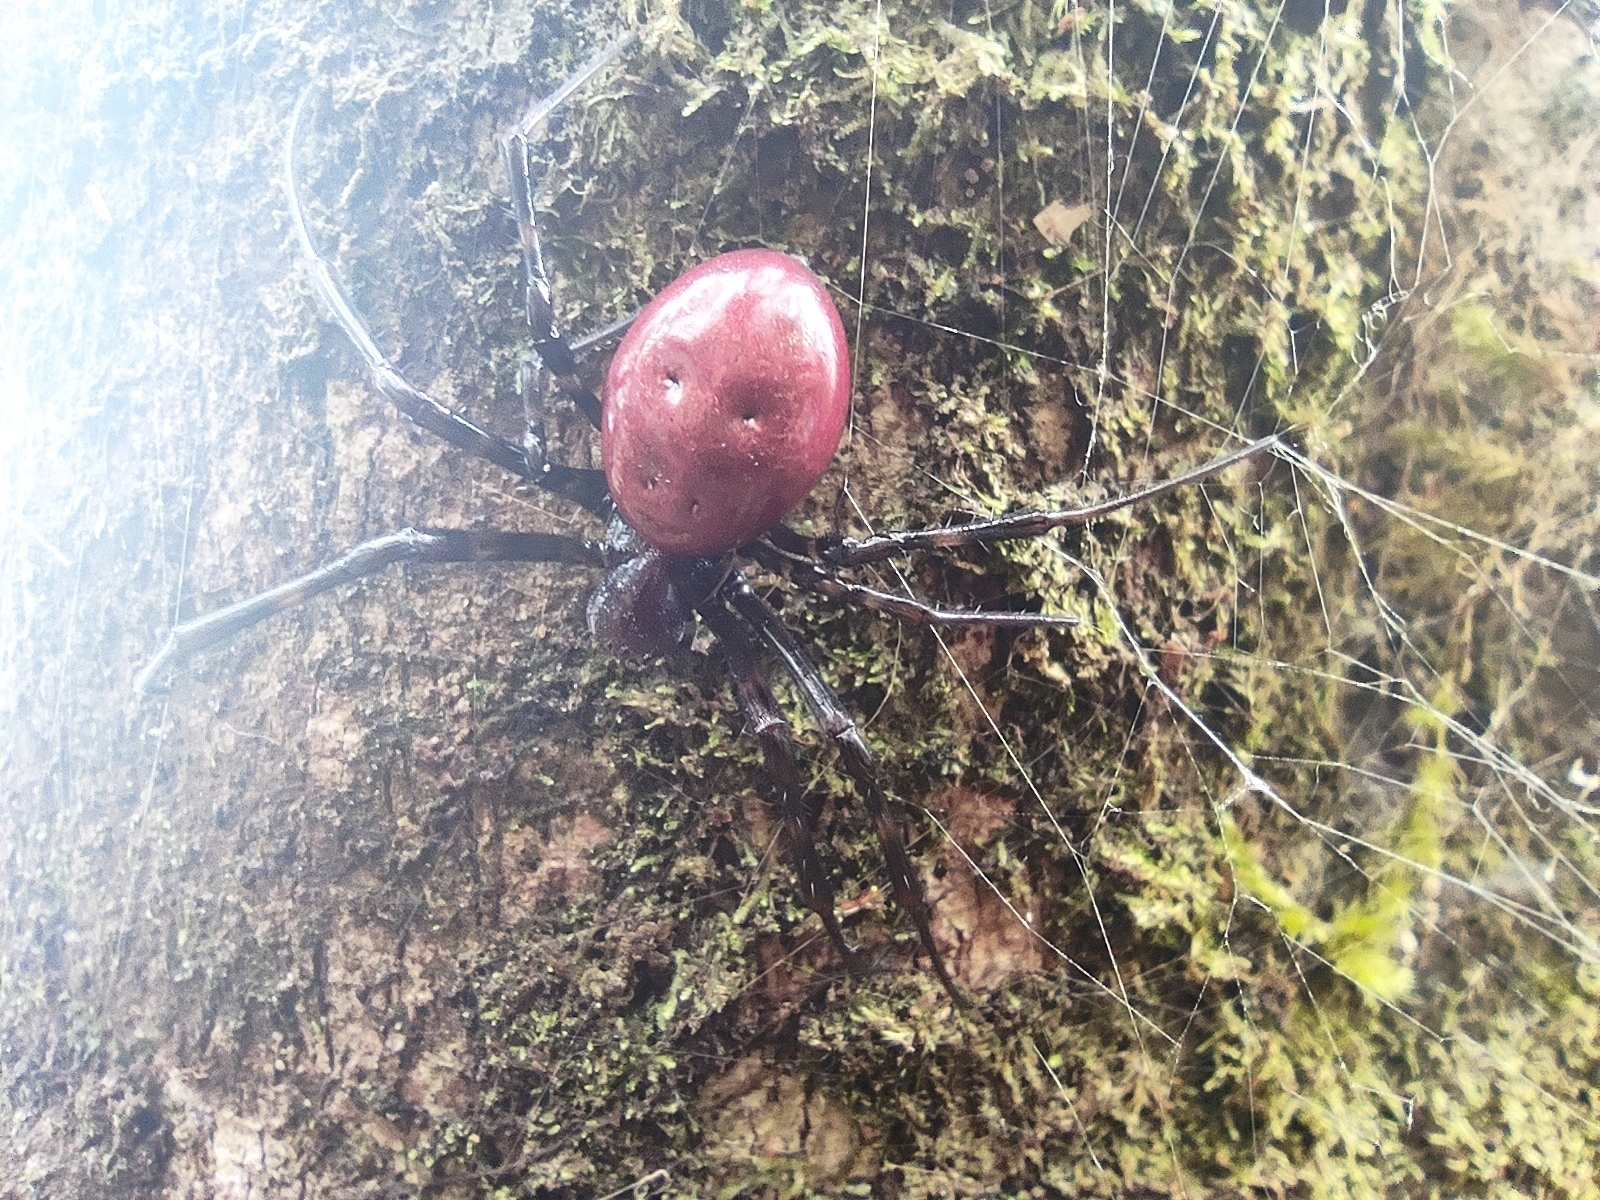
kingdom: Animalia
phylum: Arthropoda
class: Arachnida
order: Araneae
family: Araneidae
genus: Nephilingis
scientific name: Nephilingis borbonica
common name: Reunion hermit spider
